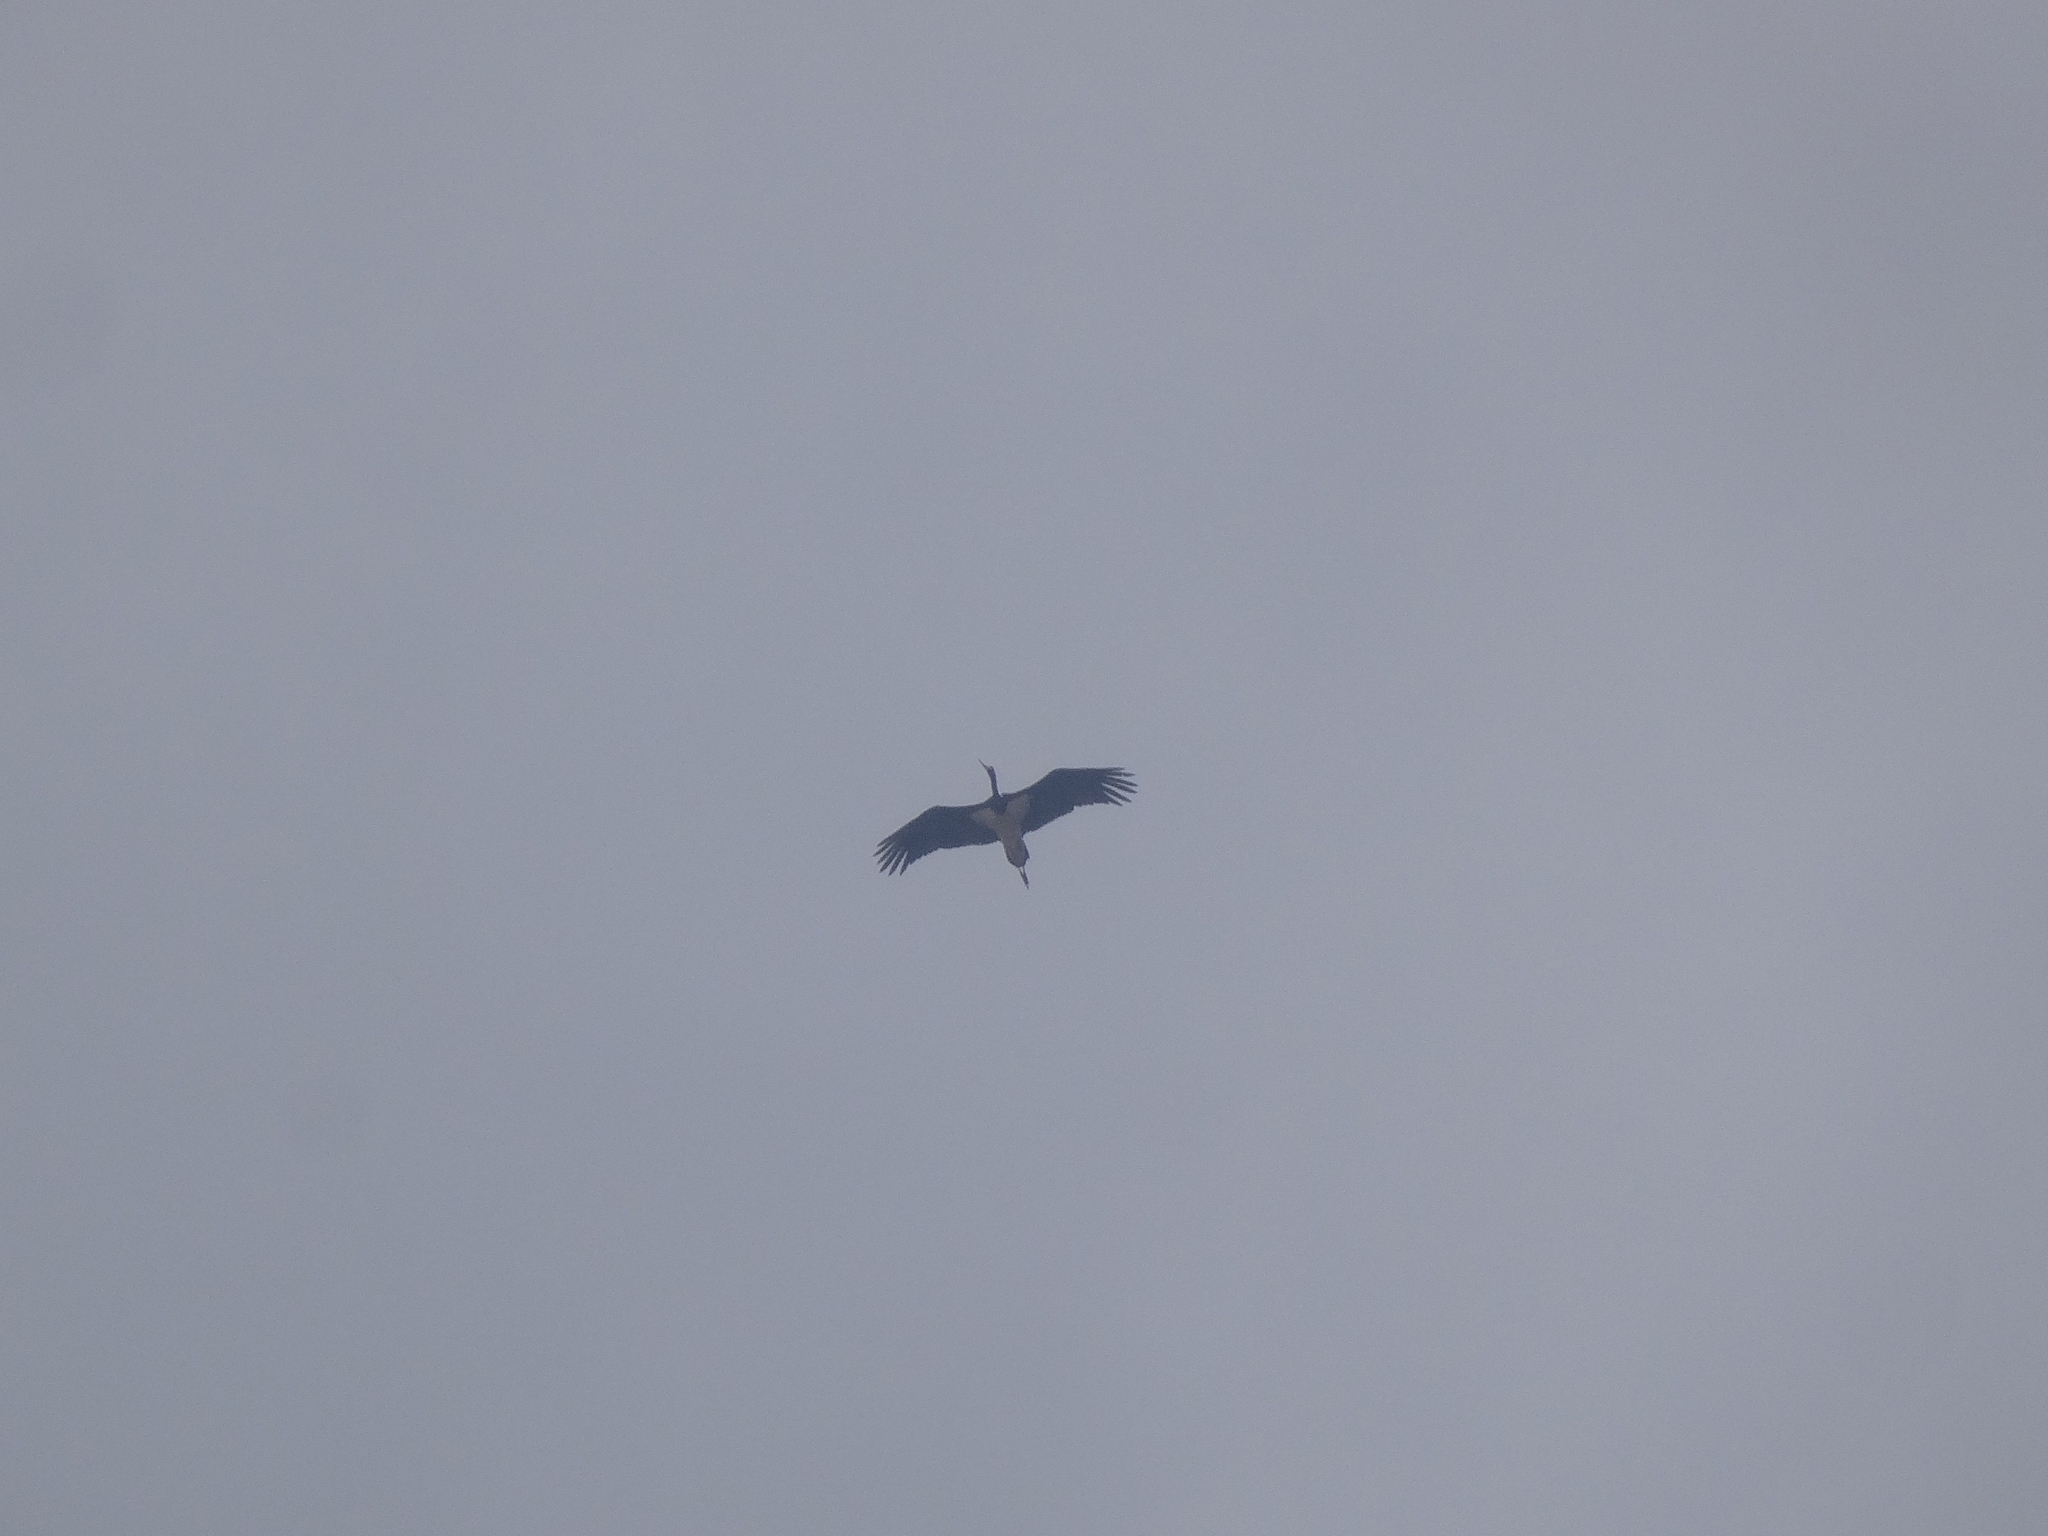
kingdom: Animalia
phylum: Chordata
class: Aves
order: Ciconiiformes
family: Ciconiidae
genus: Ciconia
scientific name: Ciconia nigra
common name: Black stork
